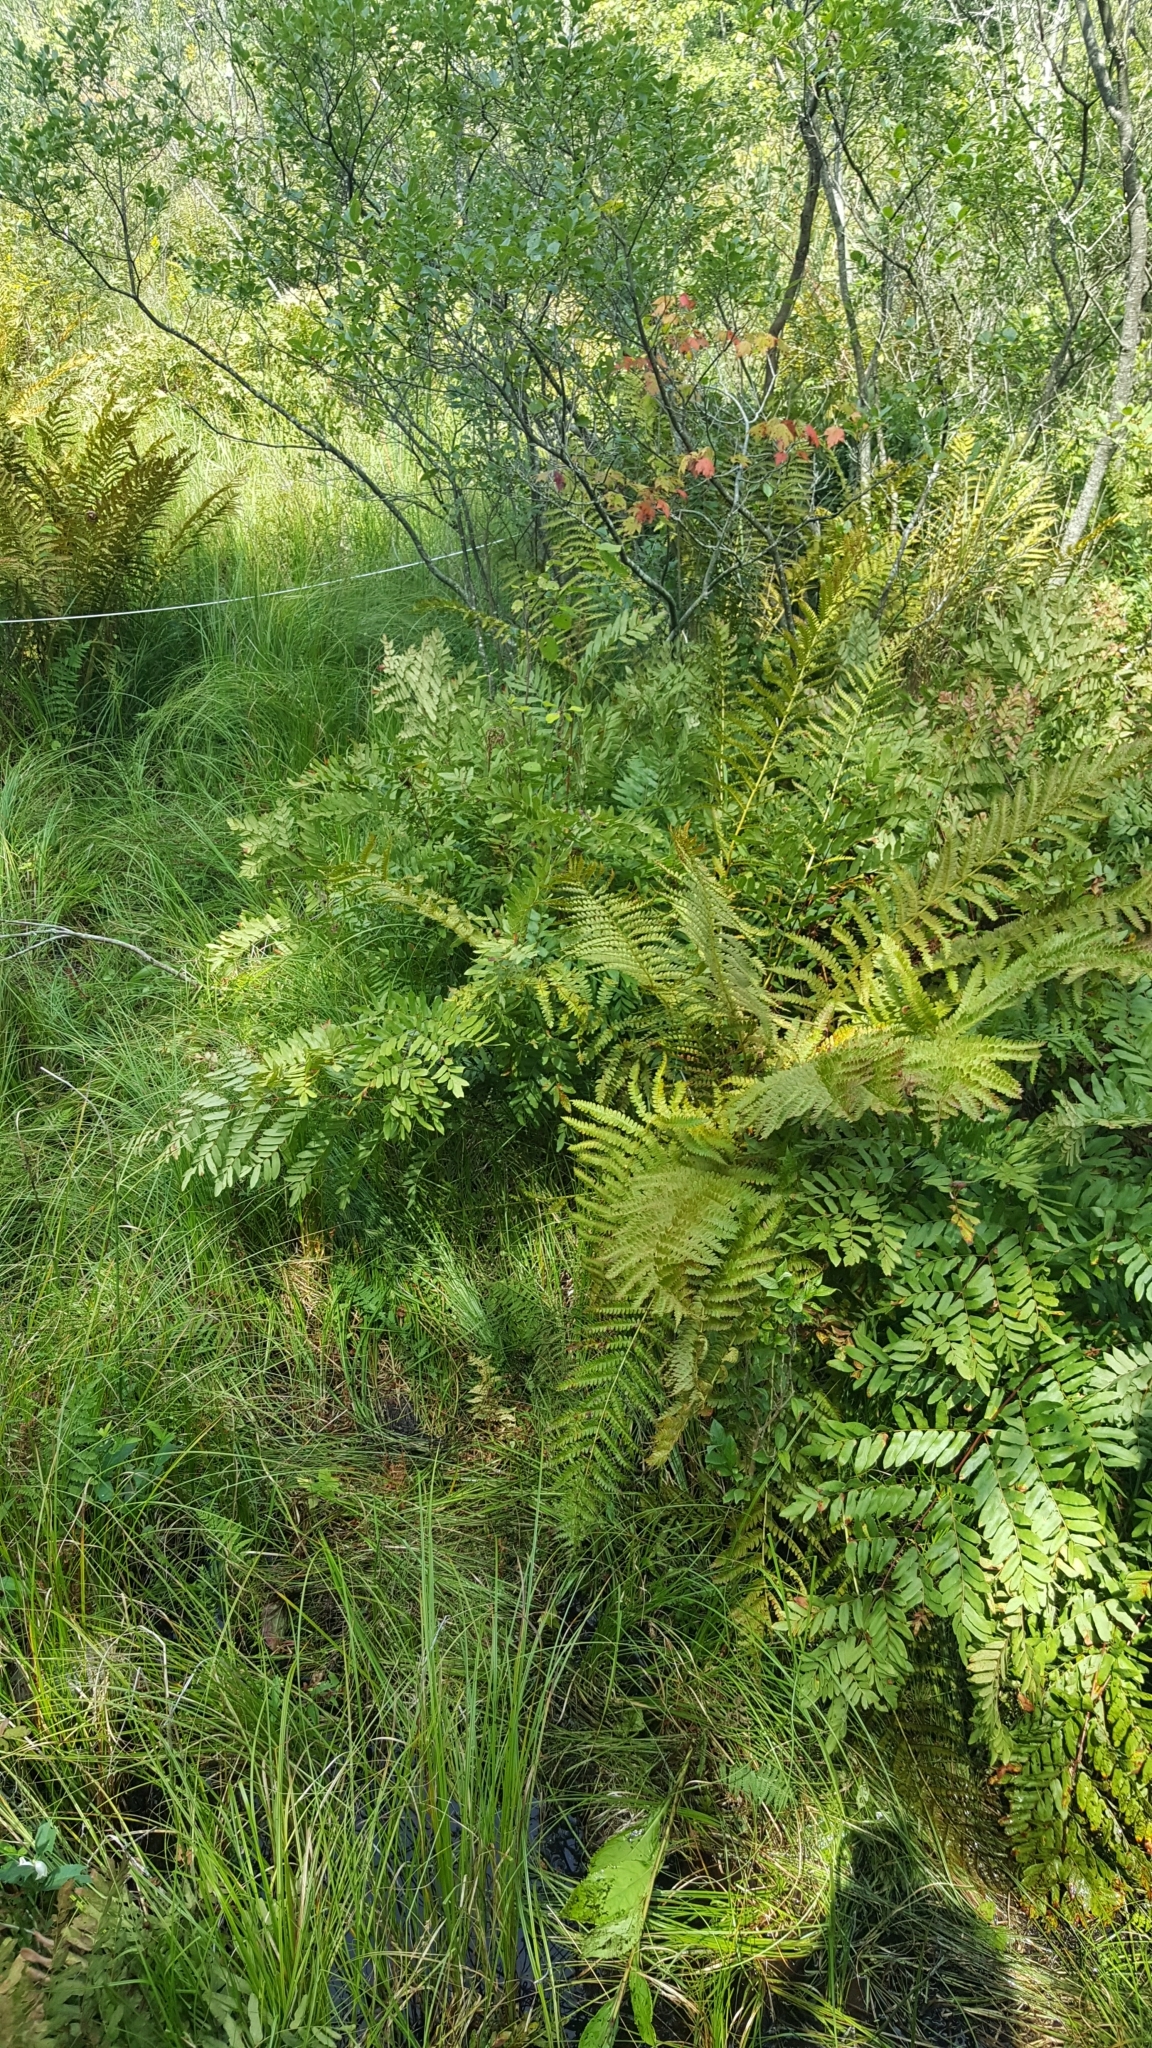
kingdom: Plantae
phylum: Tracheophyta
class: Polypodiopsida
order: Osmundales
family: Osmundaceae
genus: Osmunda
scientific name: Osmunda spectabilis
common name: American royal fern
